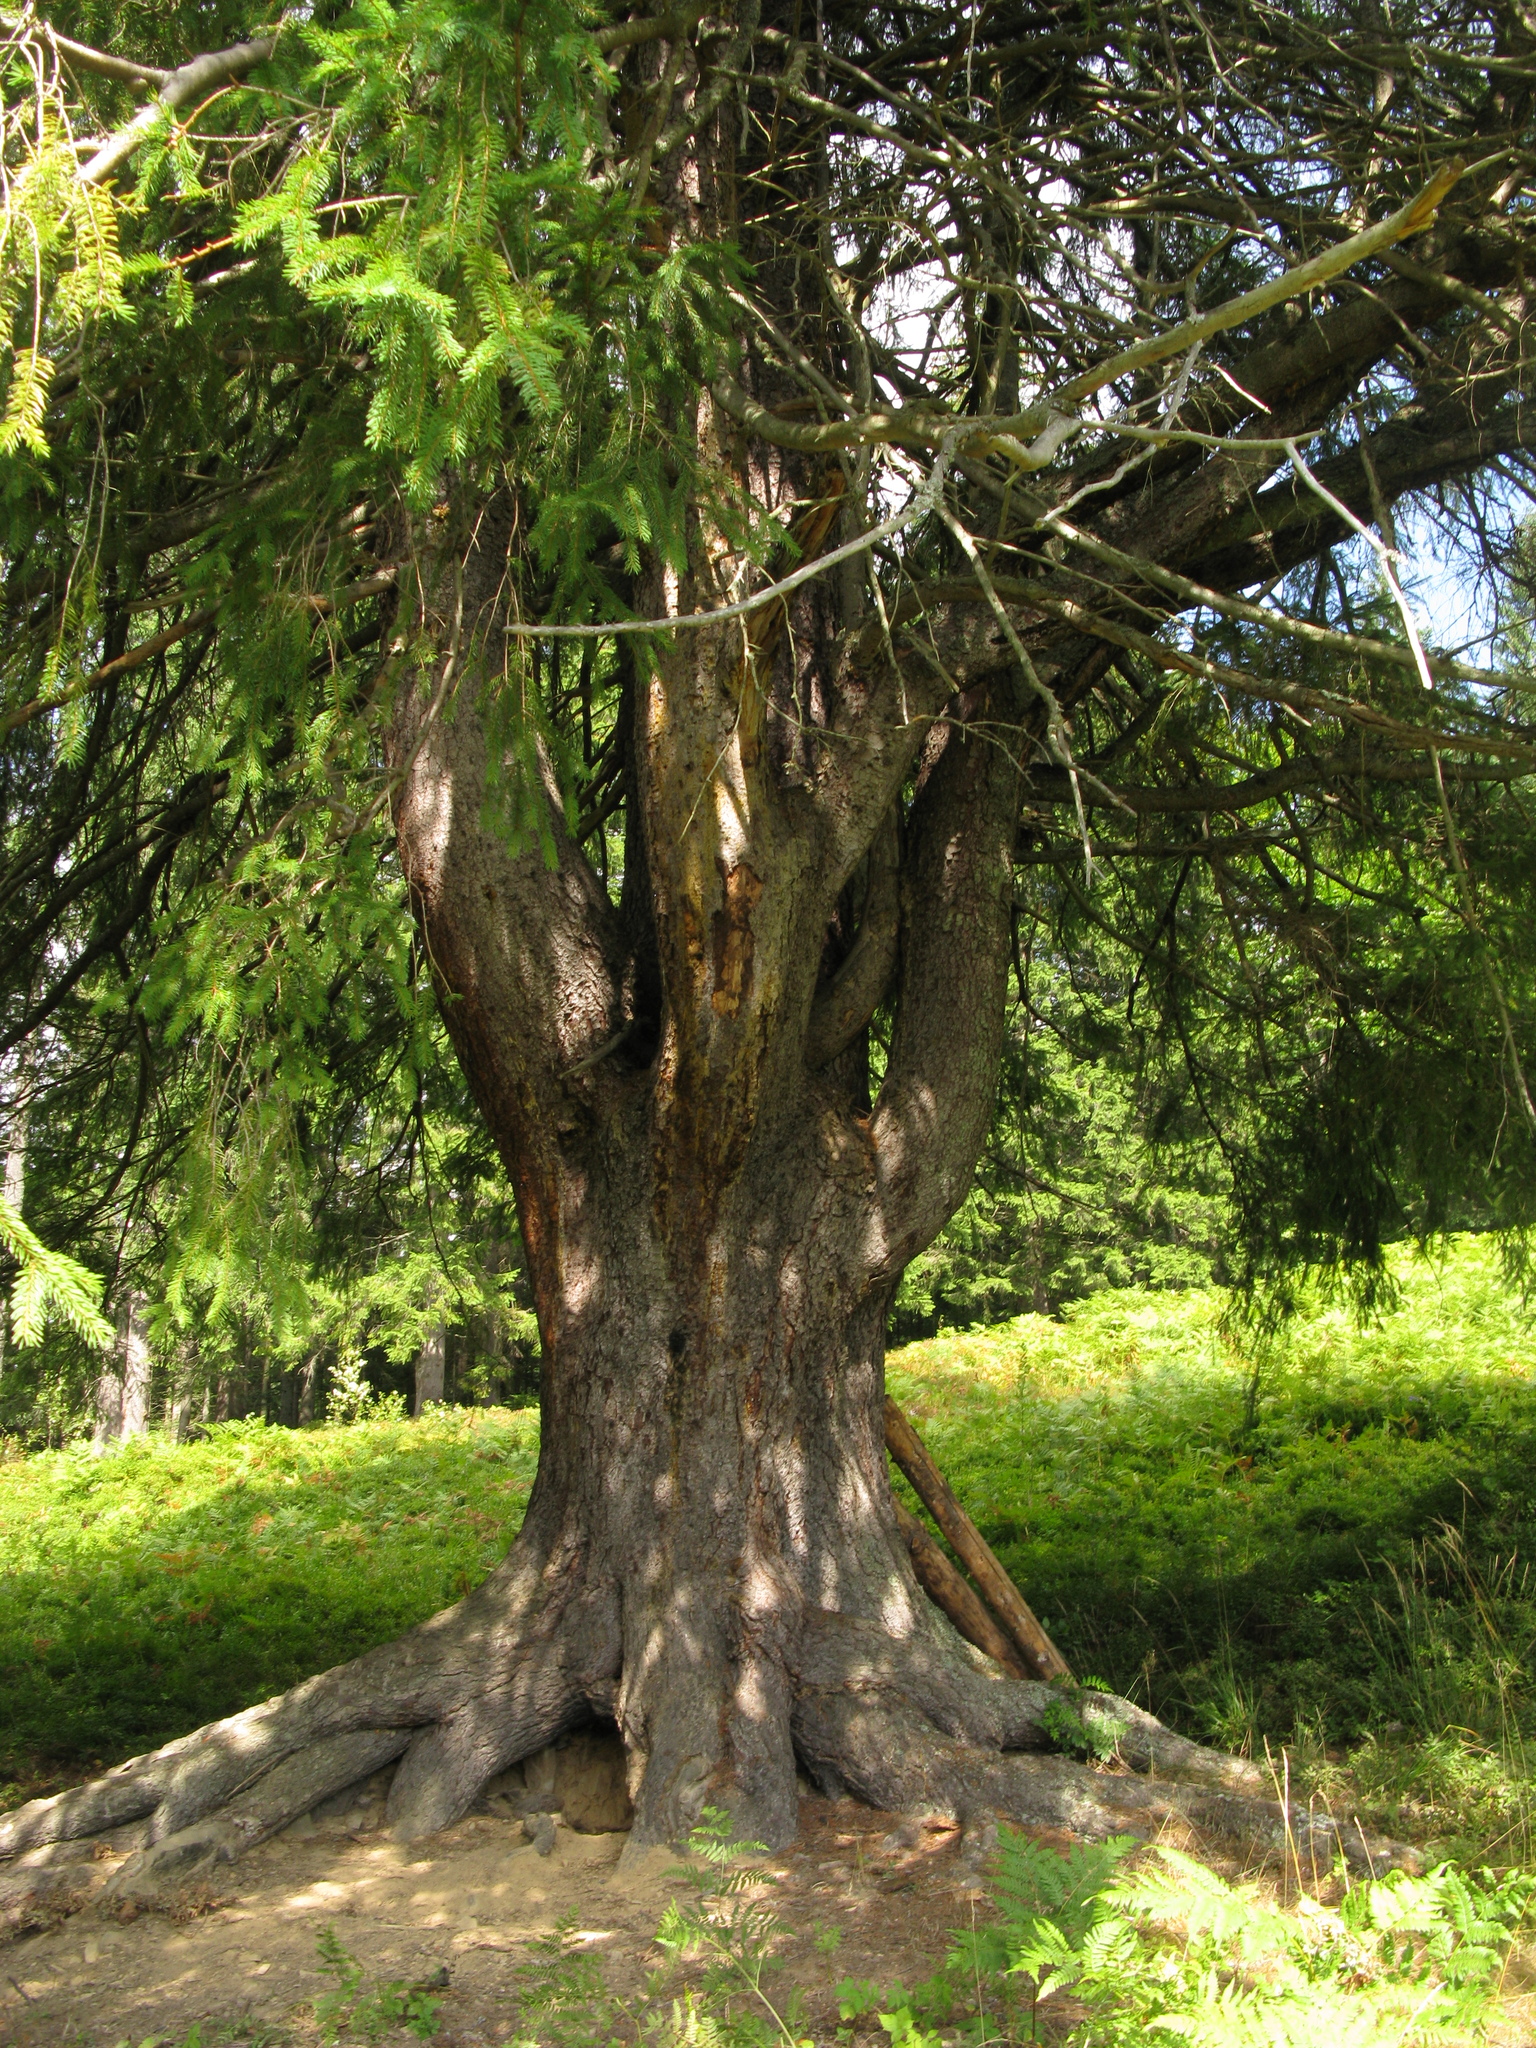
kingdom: Plantae
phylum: Tracheophyta
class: Pinopsida
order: Pinales
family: Pinaceae
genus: Picea
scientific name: Picea abies
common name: Norway spruce
